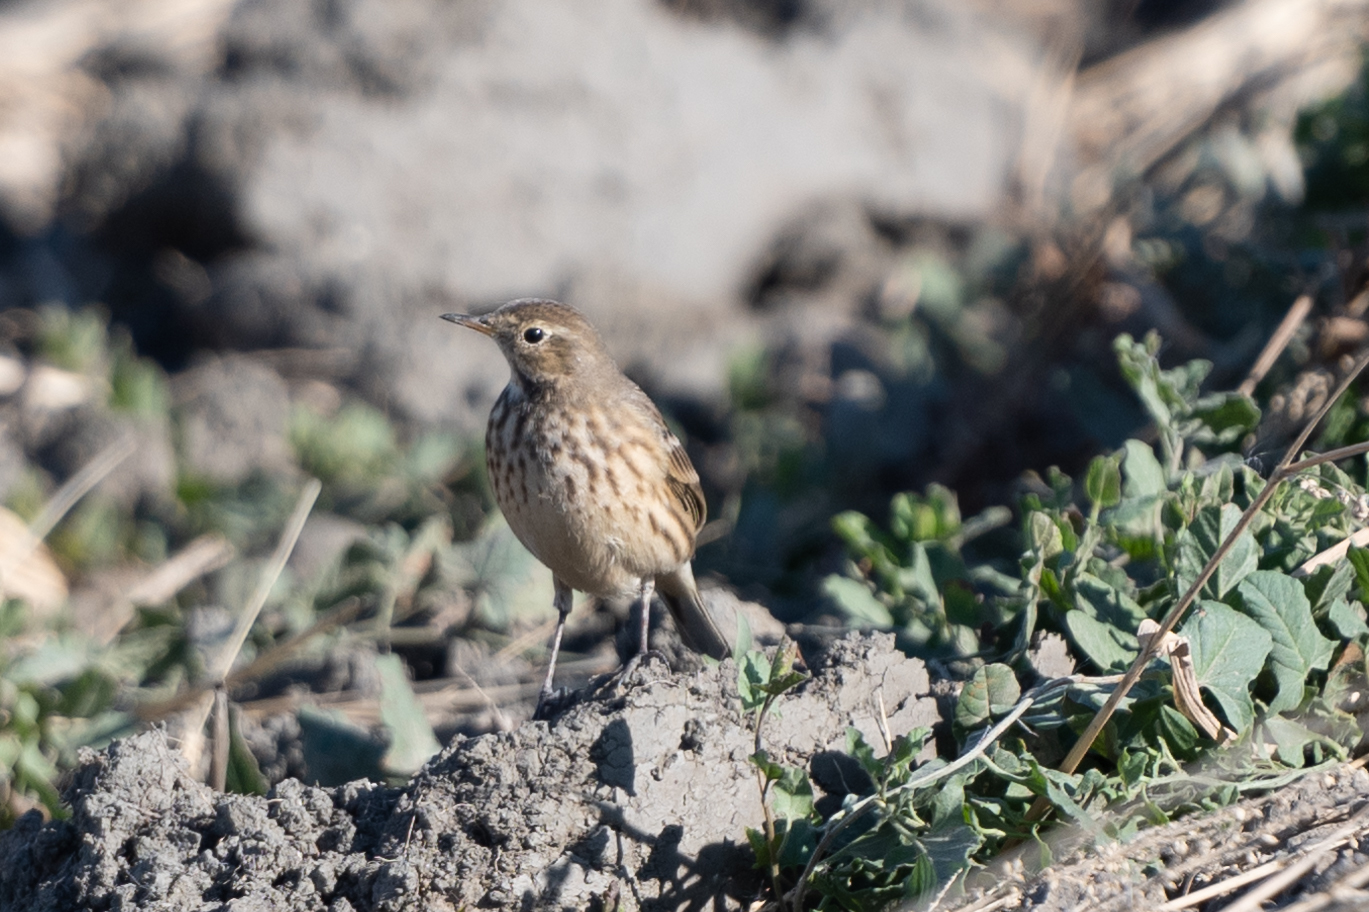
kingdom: Animalia
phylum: Chordata
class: Aves
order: Passeriformes
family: Motacillidae
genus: Anthus
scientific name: Anthus rubescens
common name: Buff-bellied pipit
